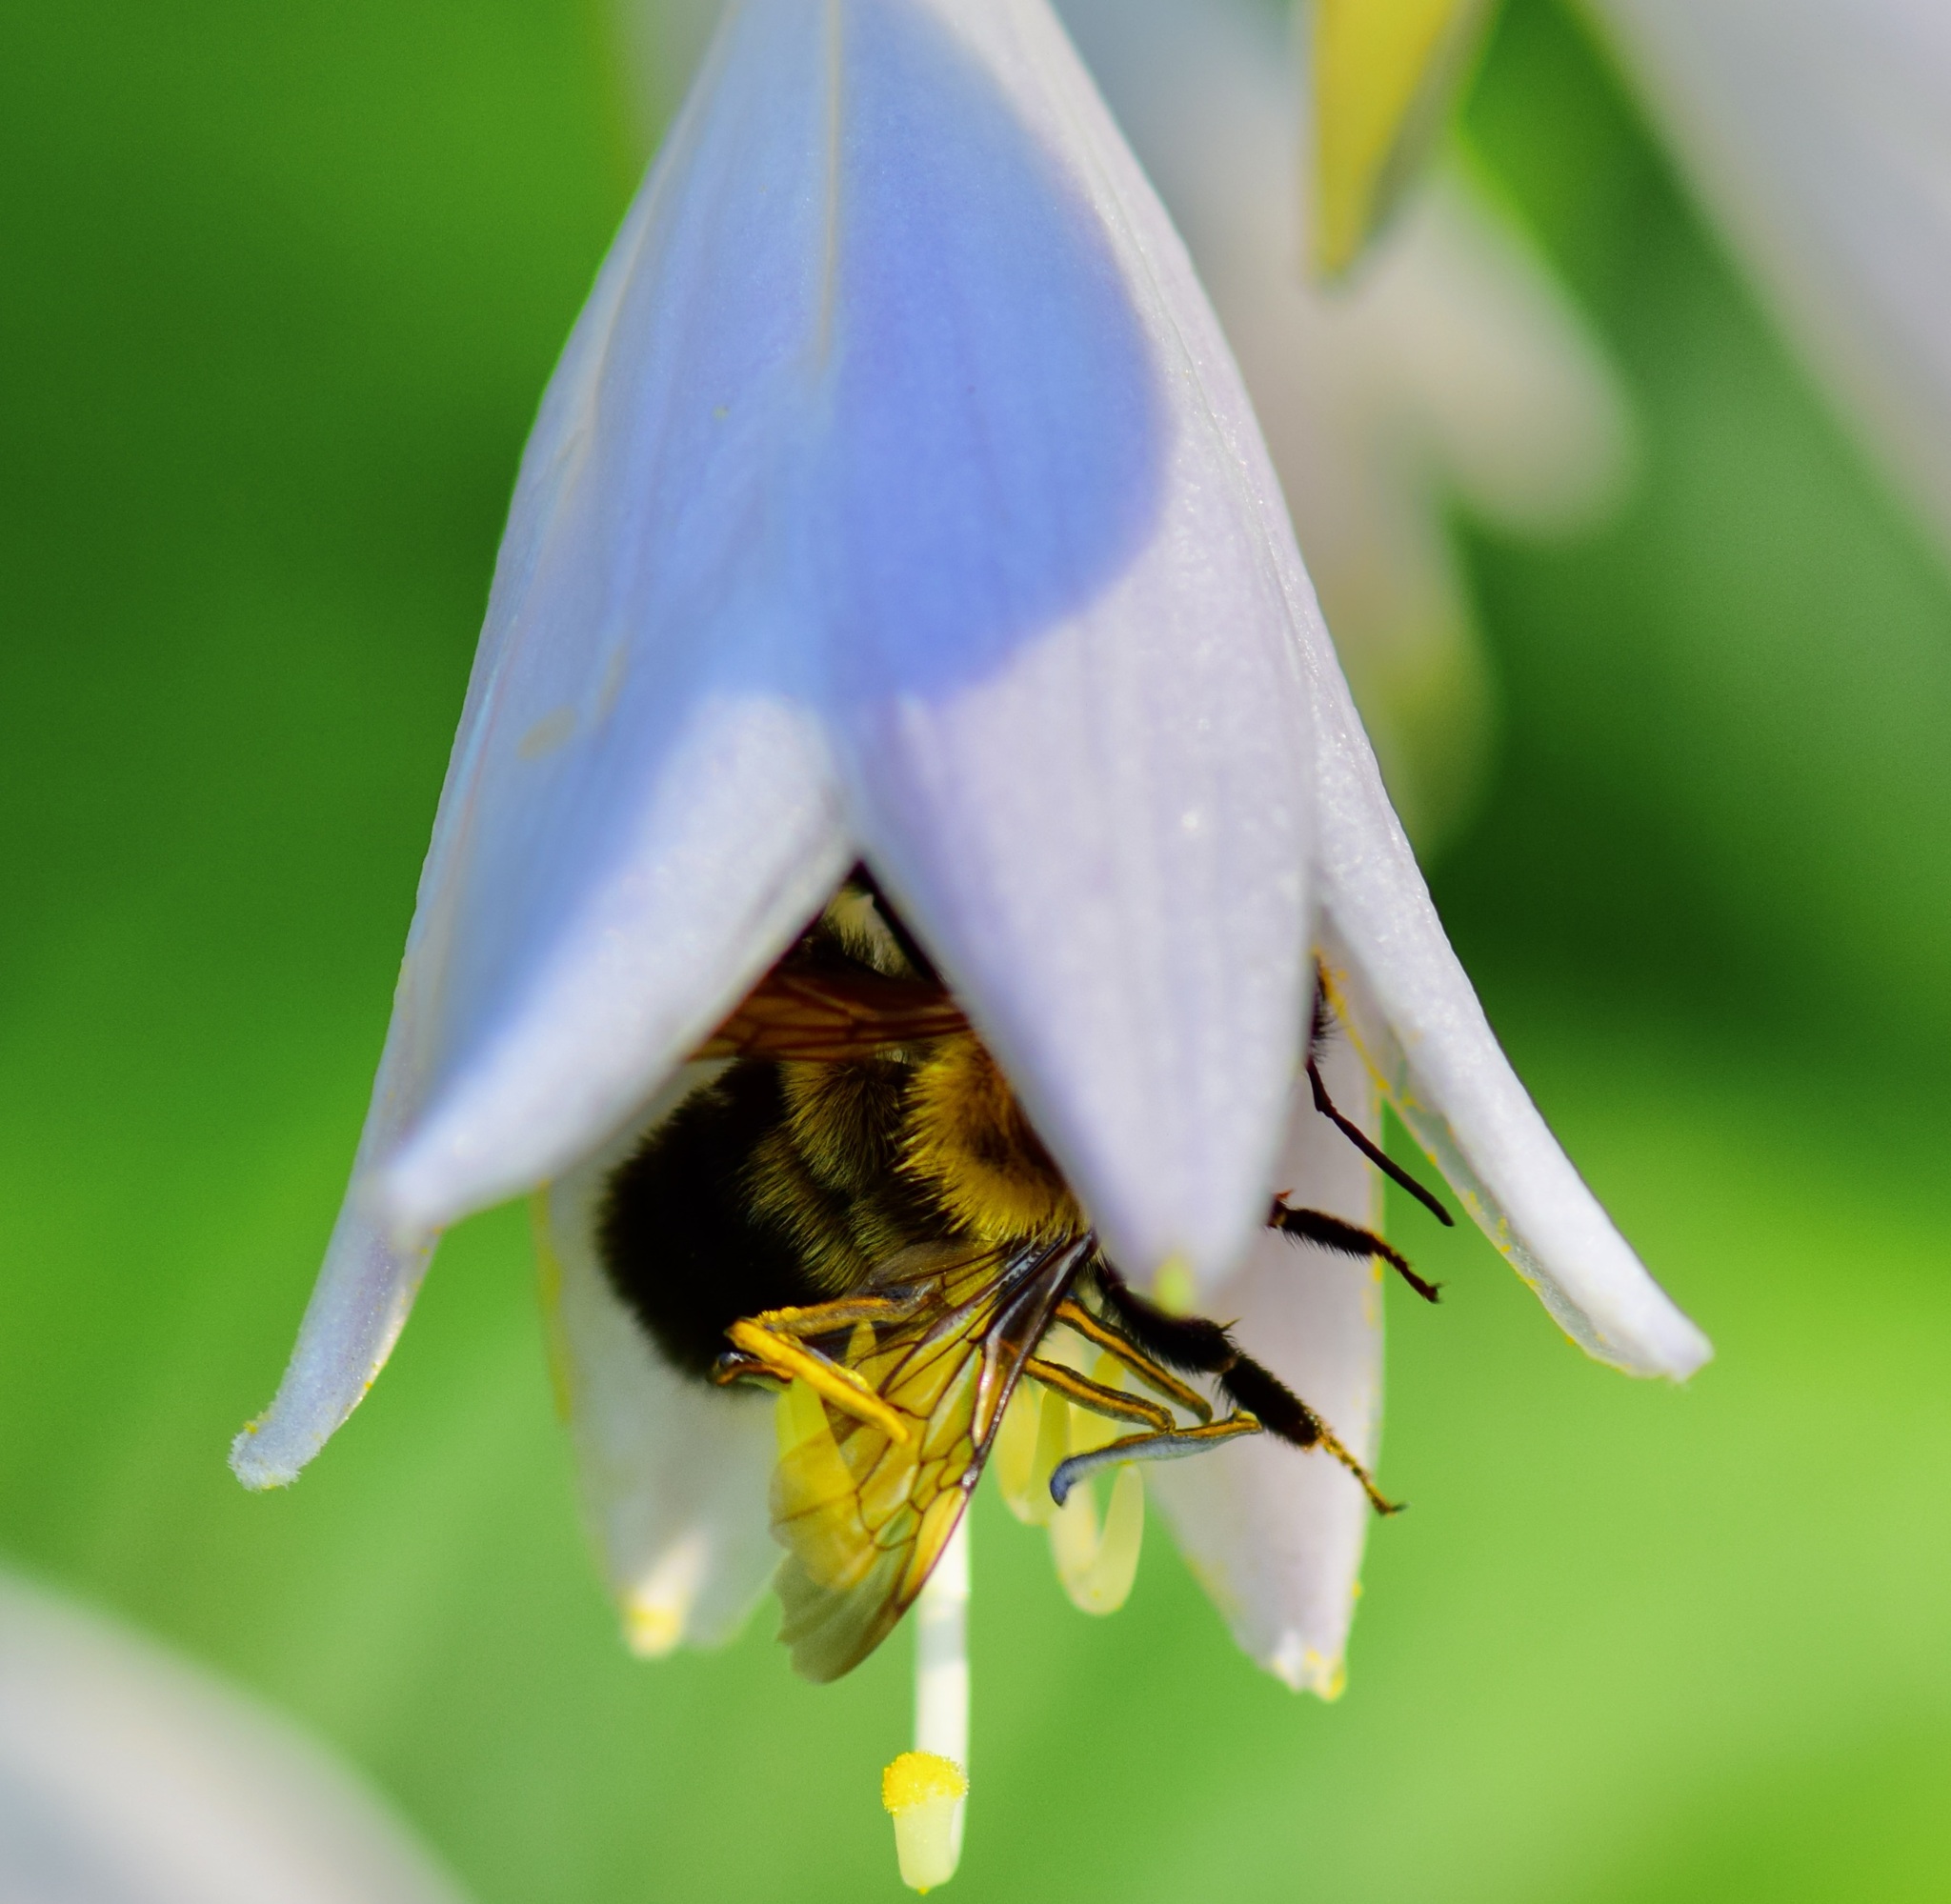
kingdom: Animalia
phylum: Arthropoda
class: Insecta
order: Hymenoptera
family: Apidae
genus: Bombus
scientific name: Bombus bimaculatus
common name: Two-spotted bumble bee
